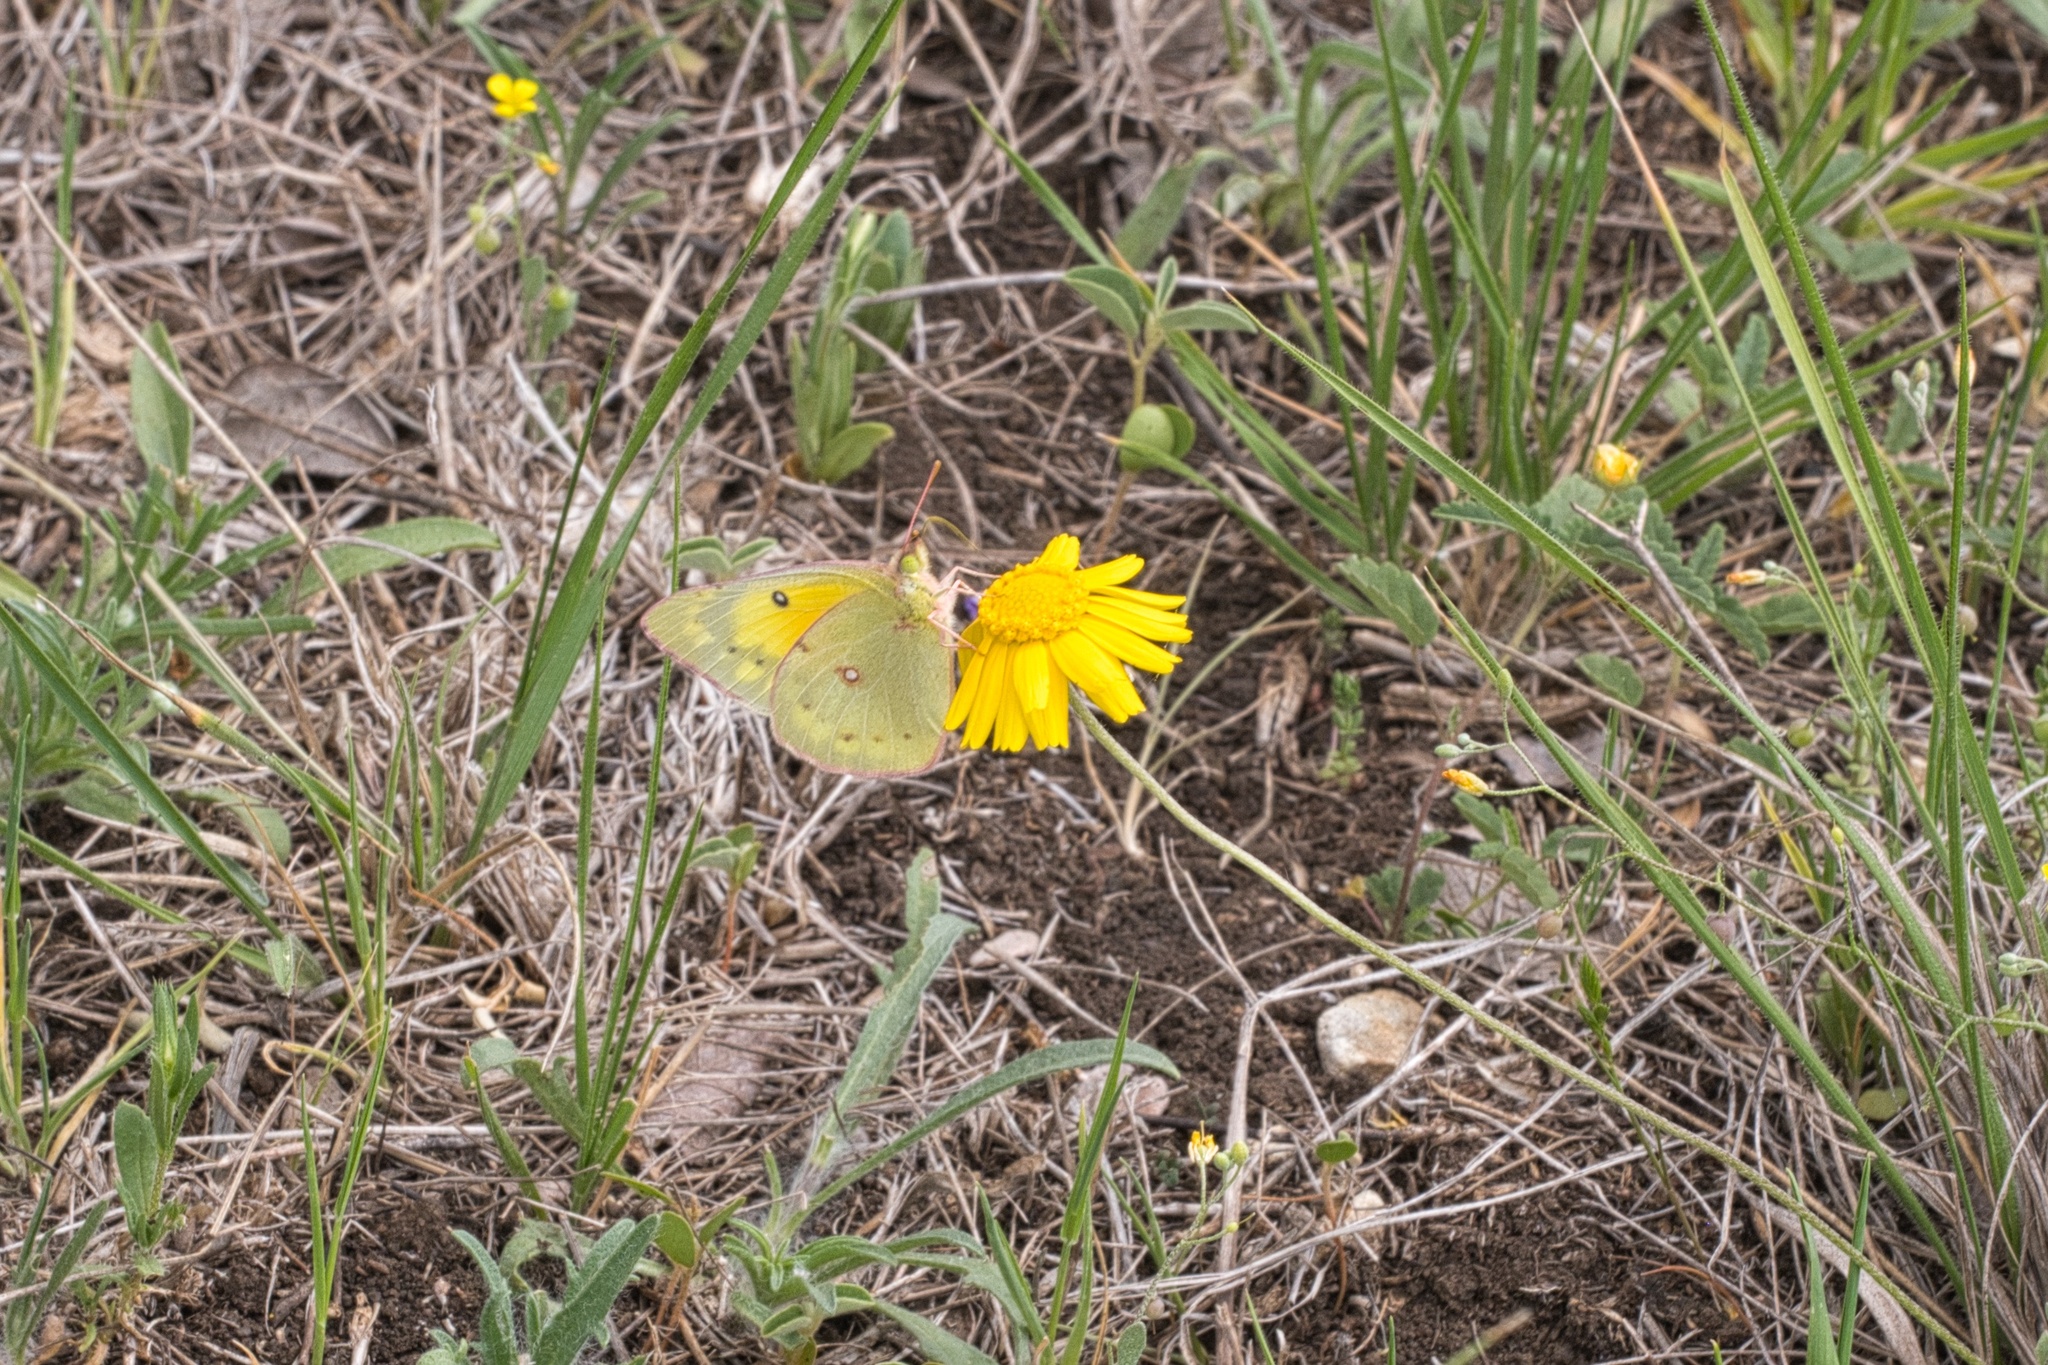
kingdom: Animalia
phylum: Arthropoda
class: Insecta
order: Lepidoptera
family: Pieridae
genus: Colias
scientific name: Colias eurytheme
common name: Alfalfa butterfly
